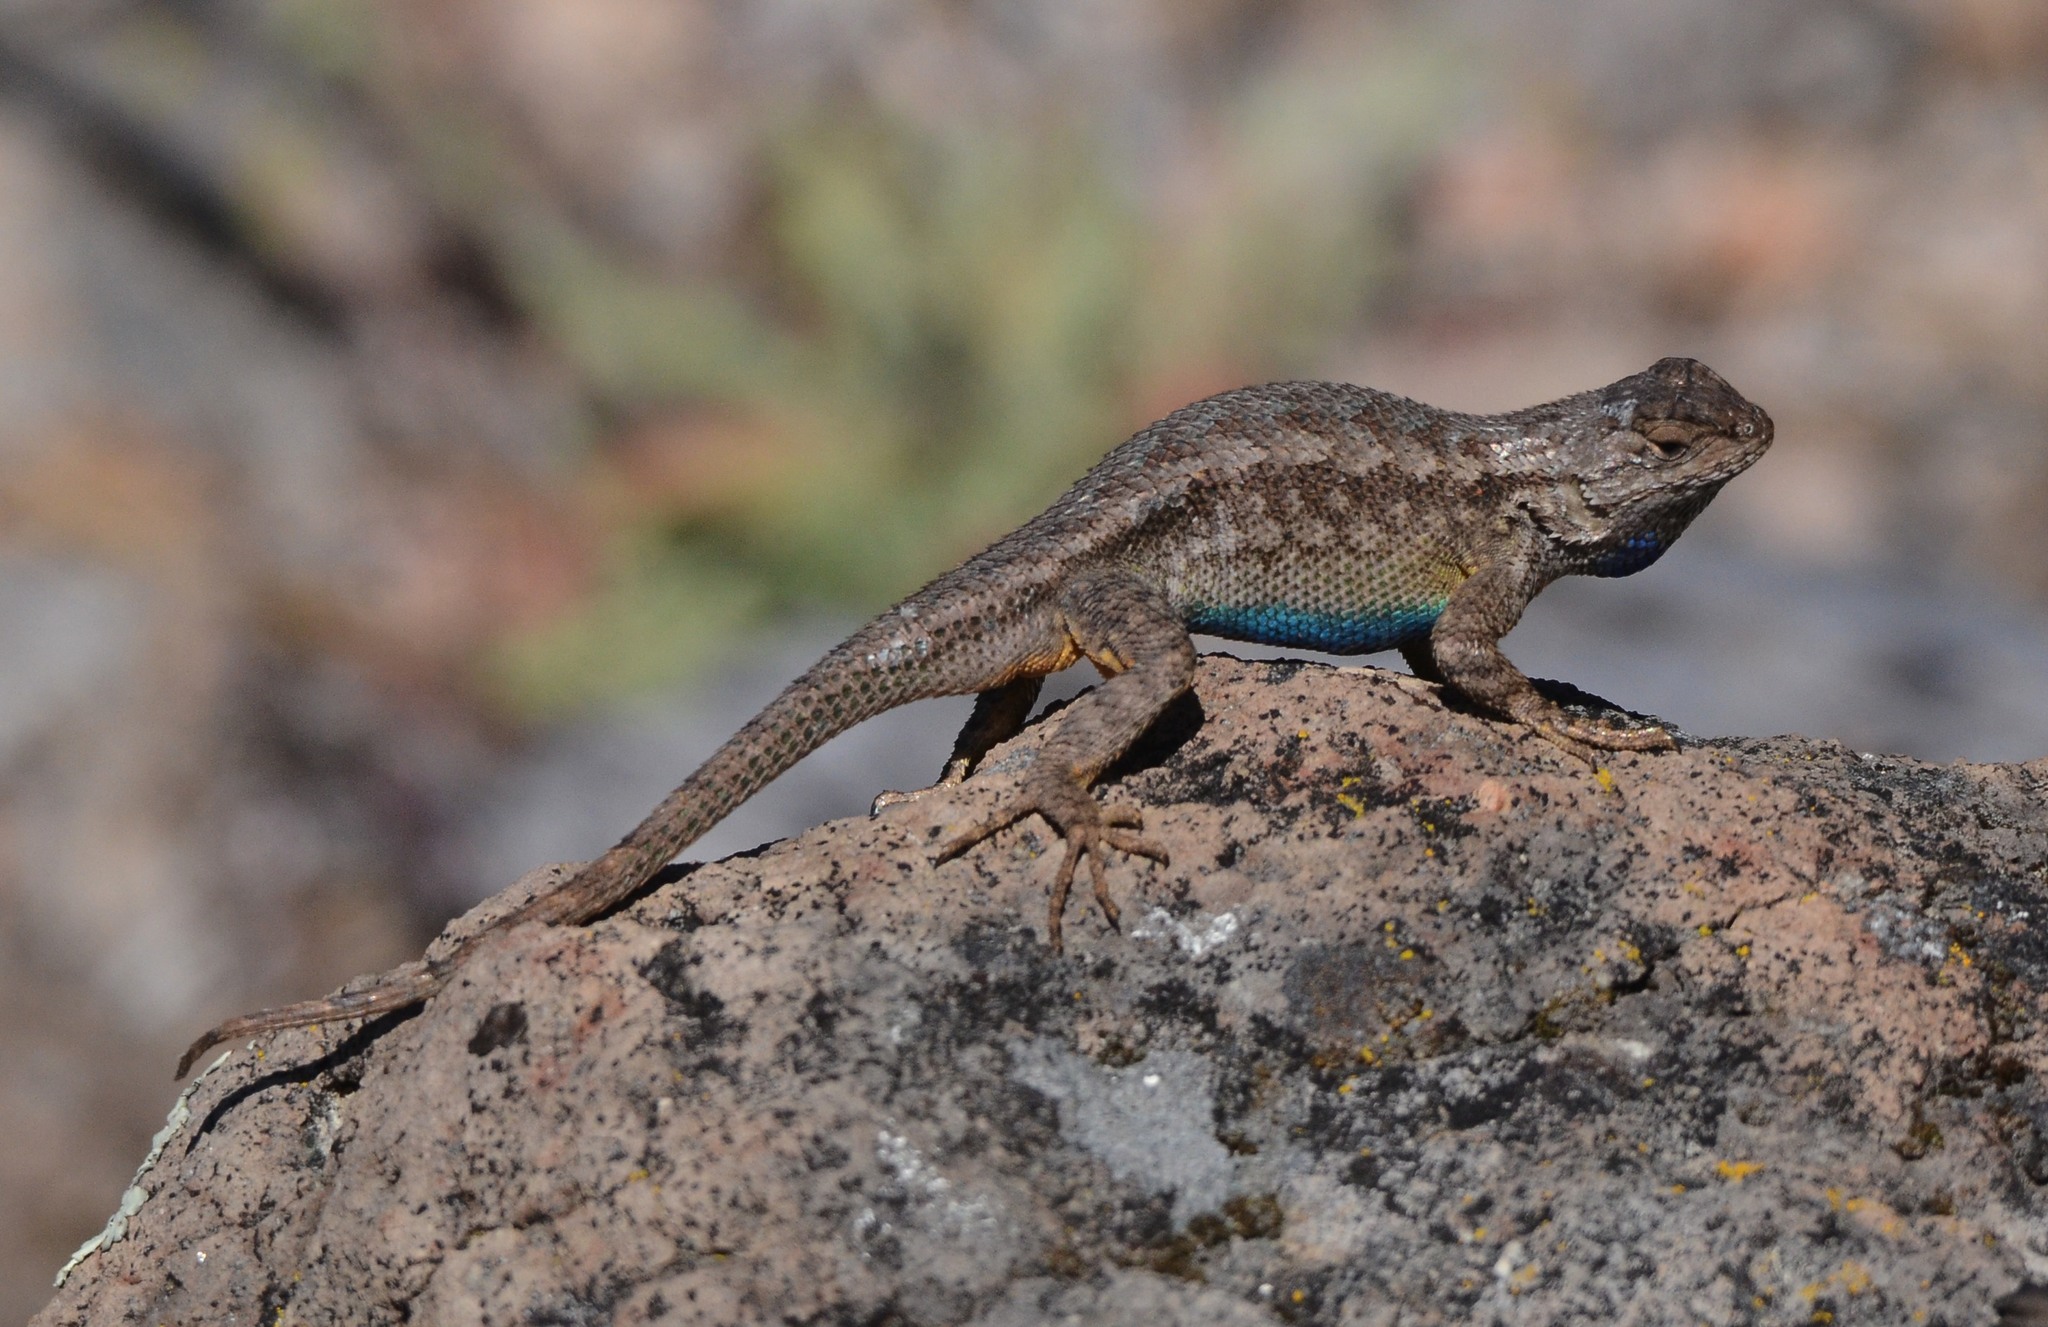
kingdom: Animalia
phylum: Chordata
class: Squamata
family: Phrynosomatidae
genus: Sceloporus
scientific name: Sceloporus occidentalis
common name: Western fence lizard
